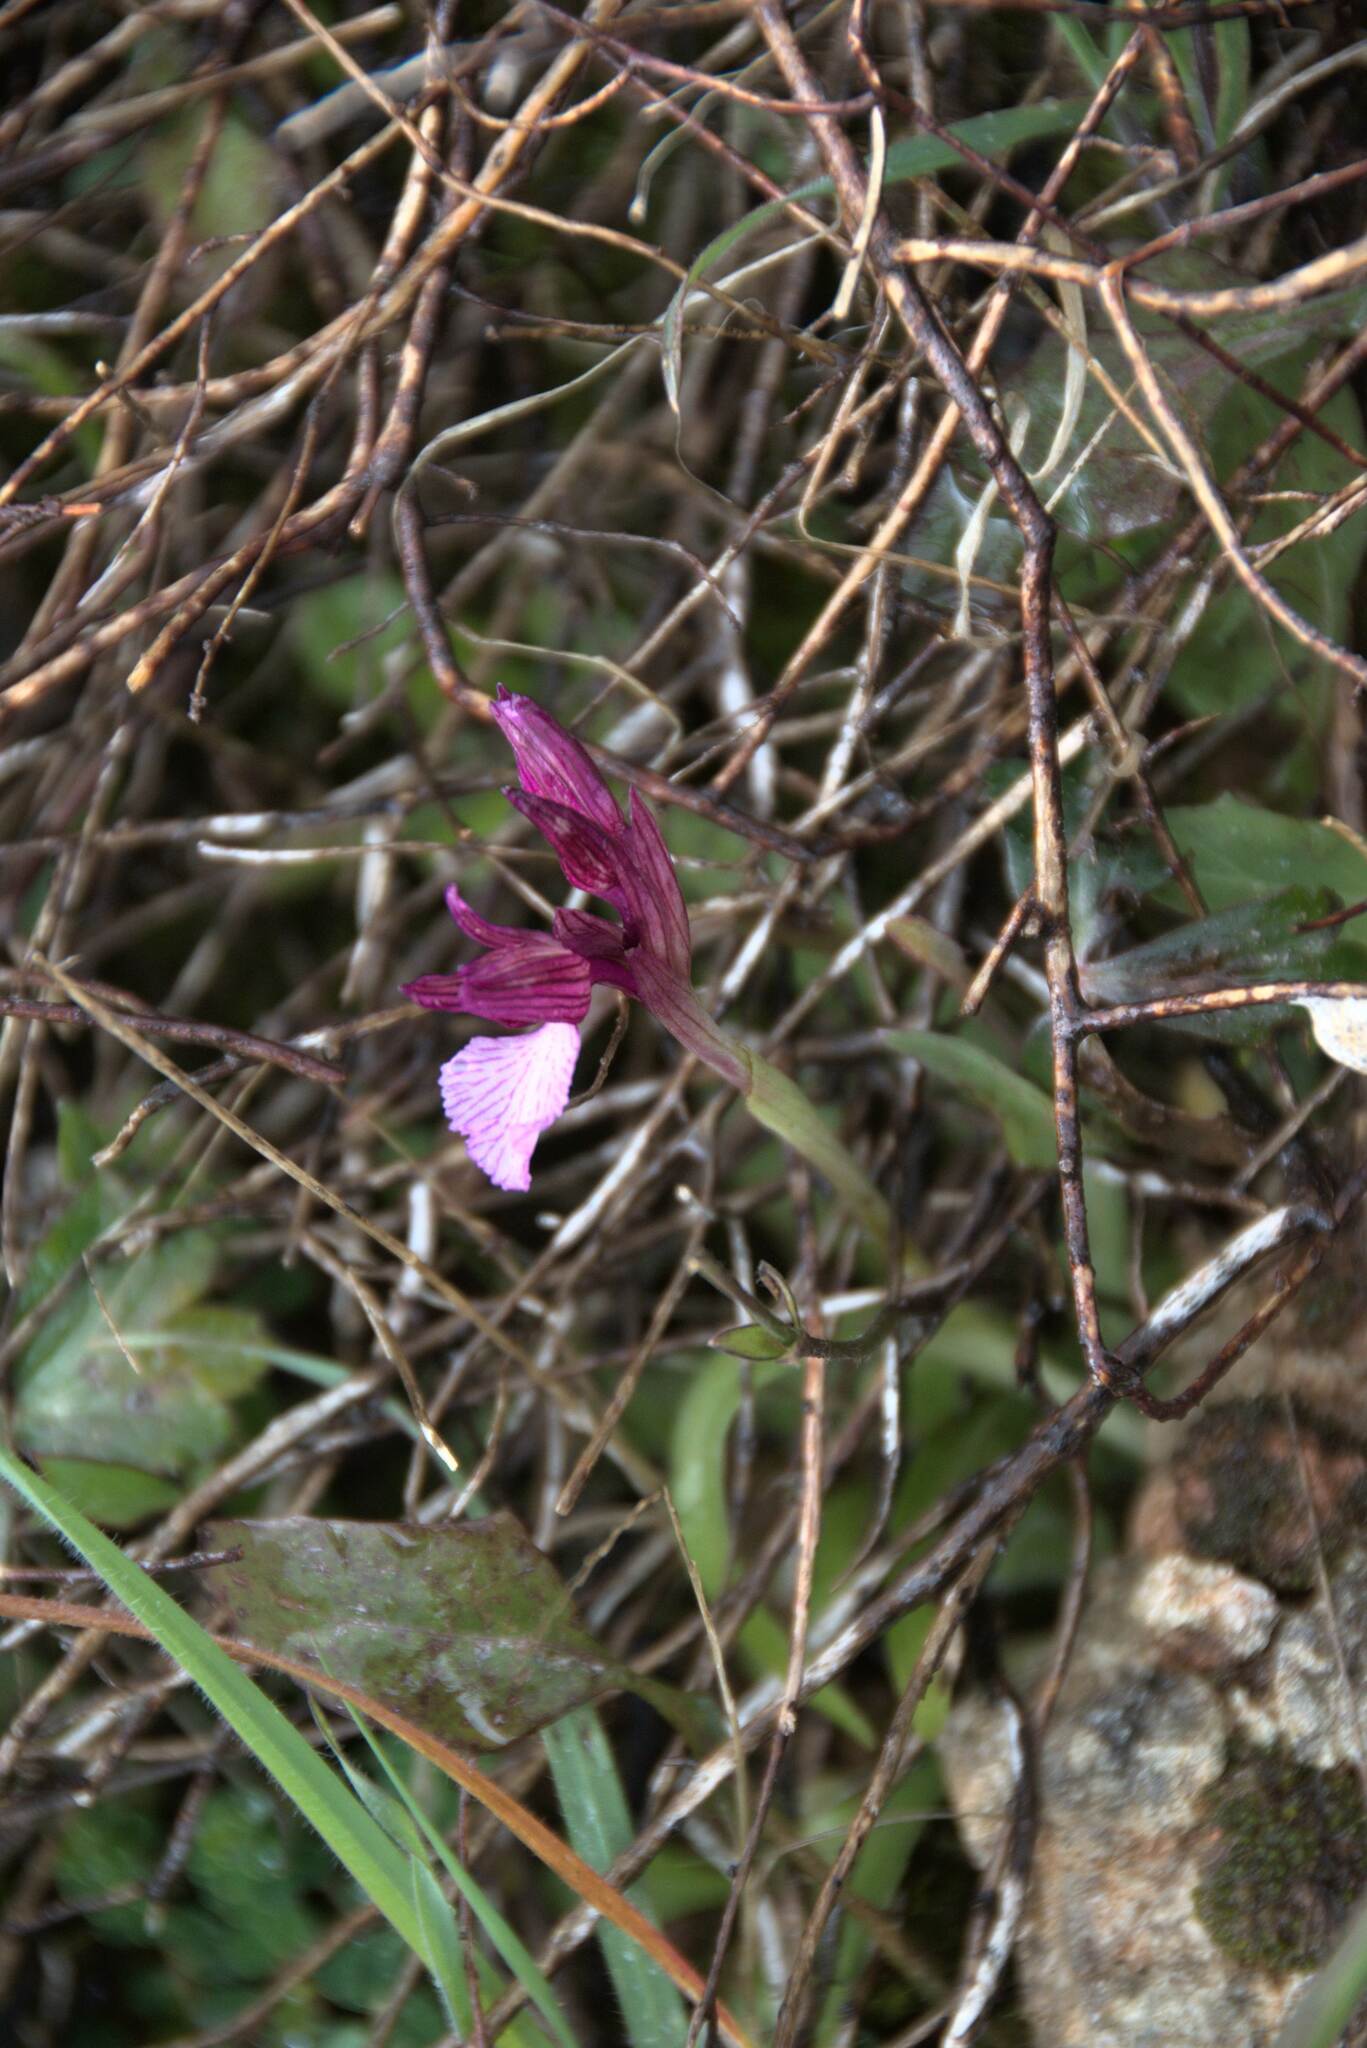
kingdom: Plantae
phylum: Tracheophyta
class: Liliopsida
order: Asparagales
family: Orchidaceae
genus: Anacamptis
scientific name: Anacamptis papilionacea
